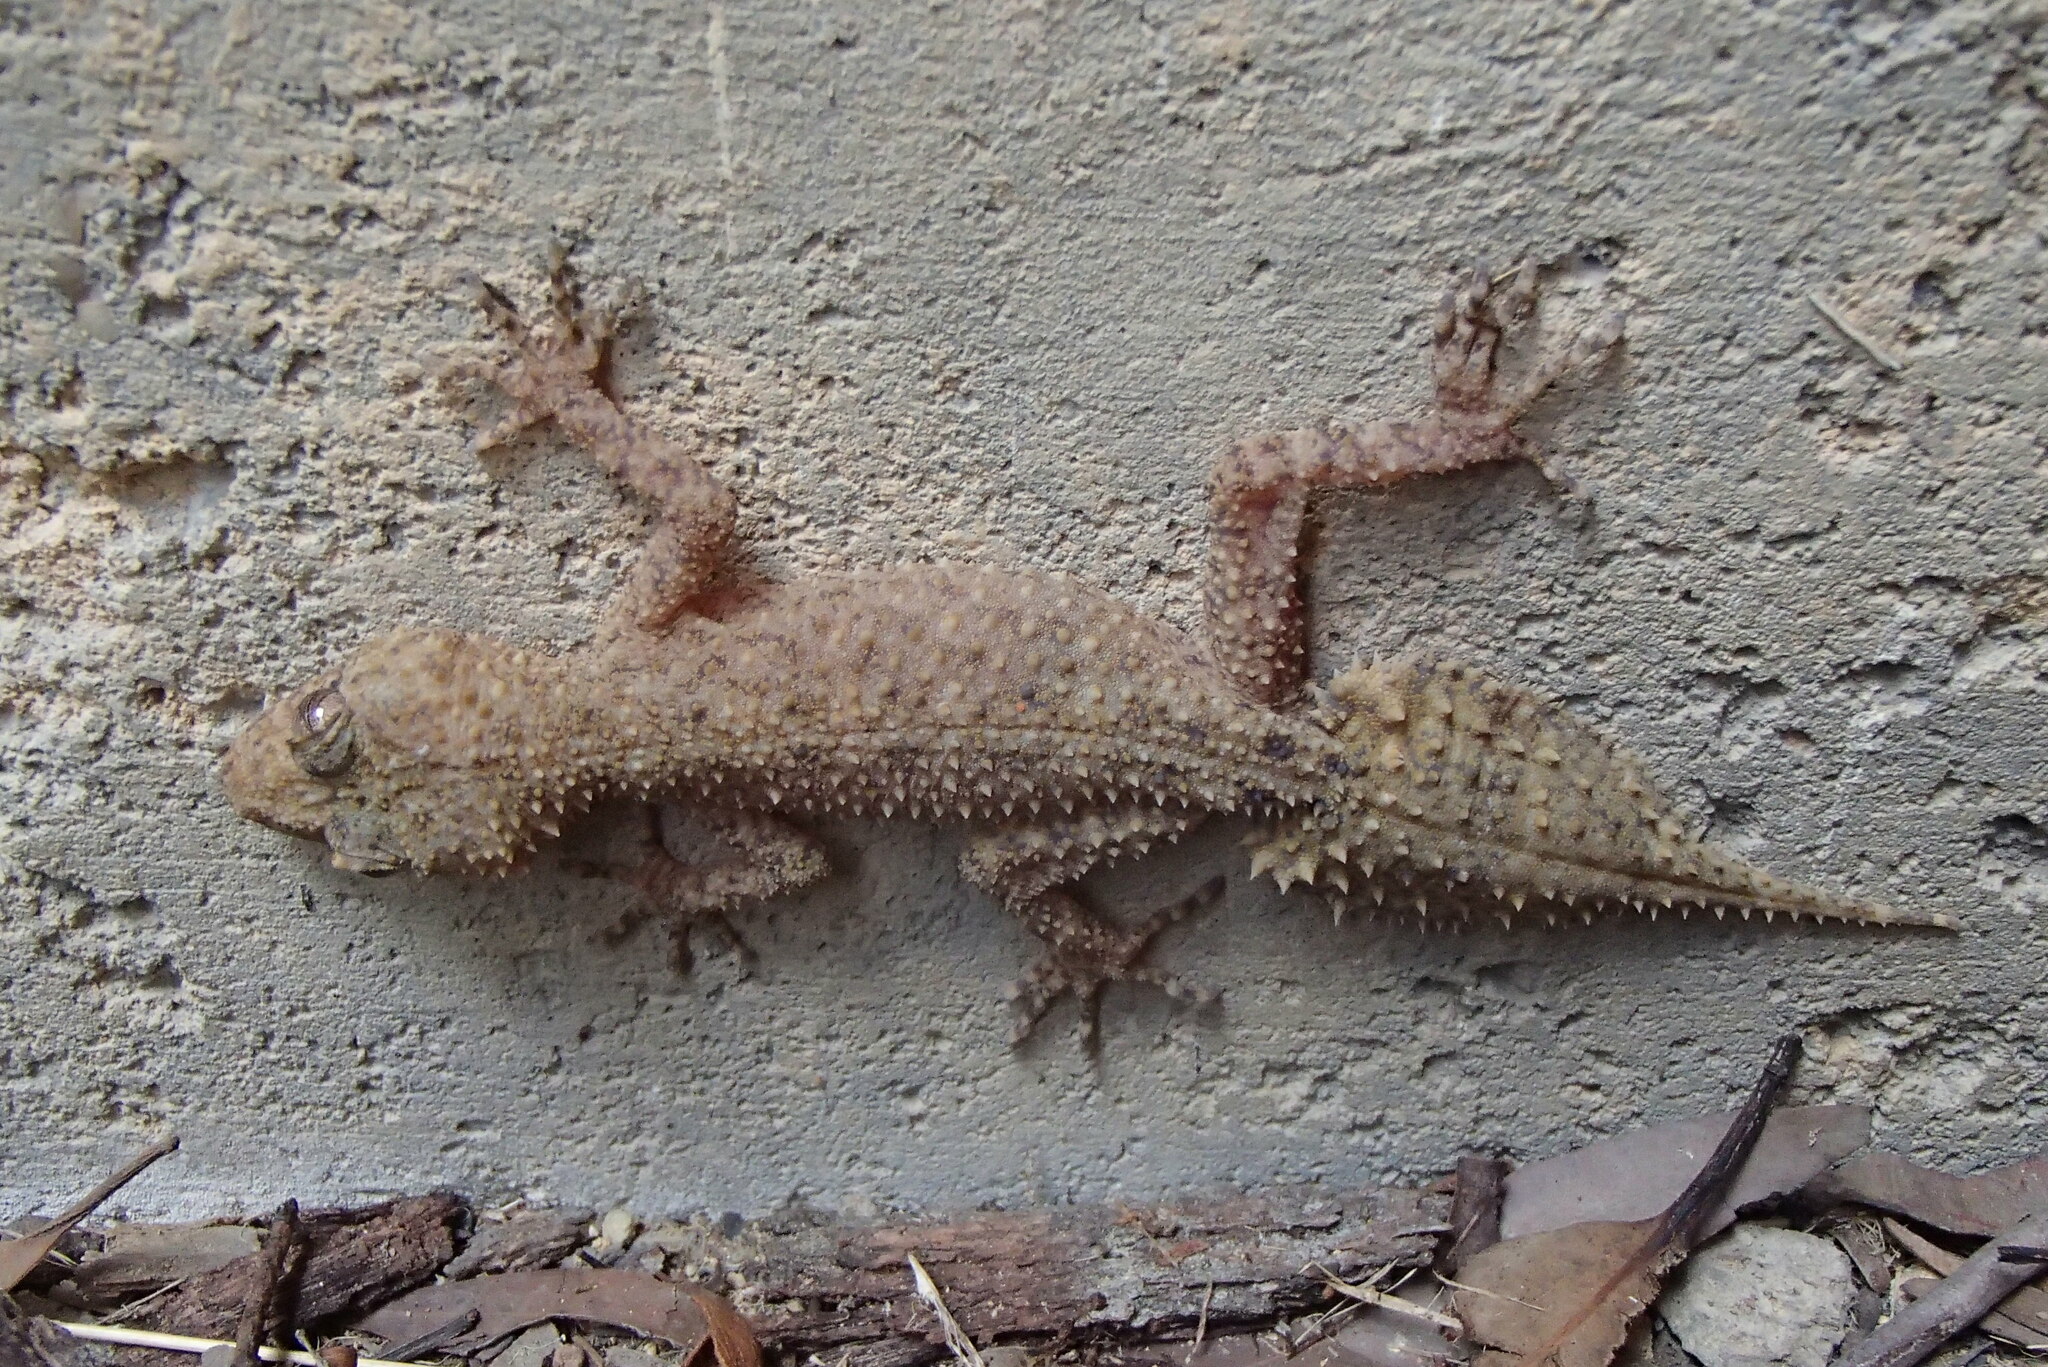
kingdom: Animalia
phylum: Chordata
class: Squamata
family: Carphodactylidae
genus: Phyllurus
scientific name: Phyllurus platurus
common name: Broad-tailed gecko
